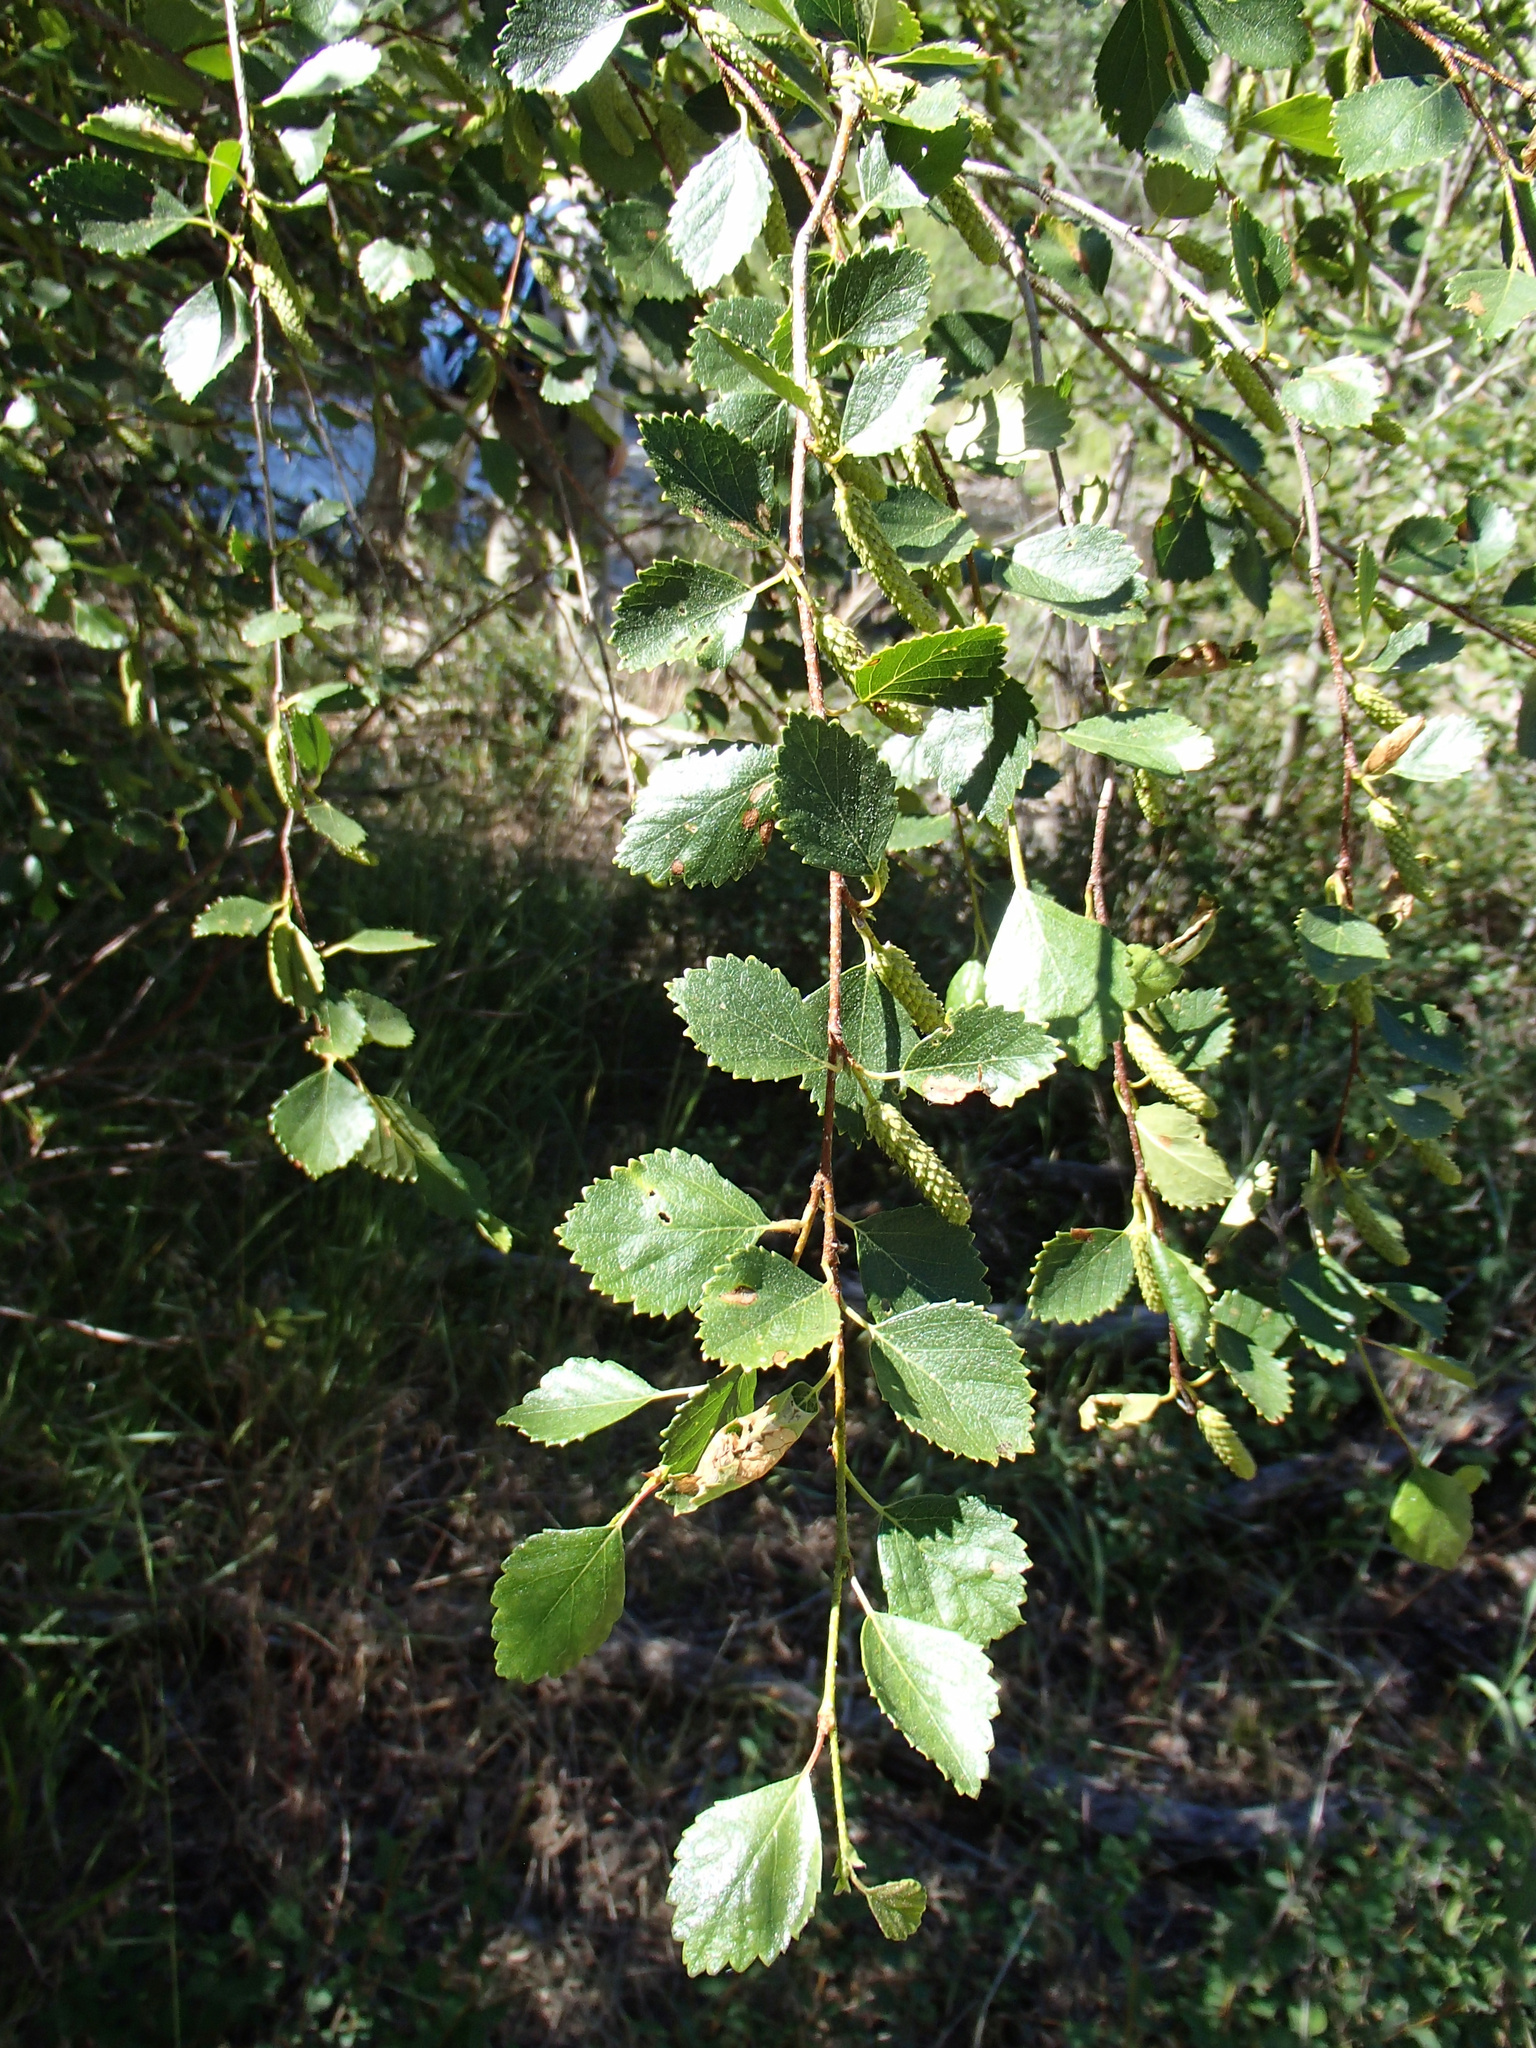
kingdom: Plantae
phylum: Tracheophyta
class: Magnoliopsida
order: Fagales
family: Betulaceae
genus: Betula
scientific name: Betula occidentalis
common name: River birch
